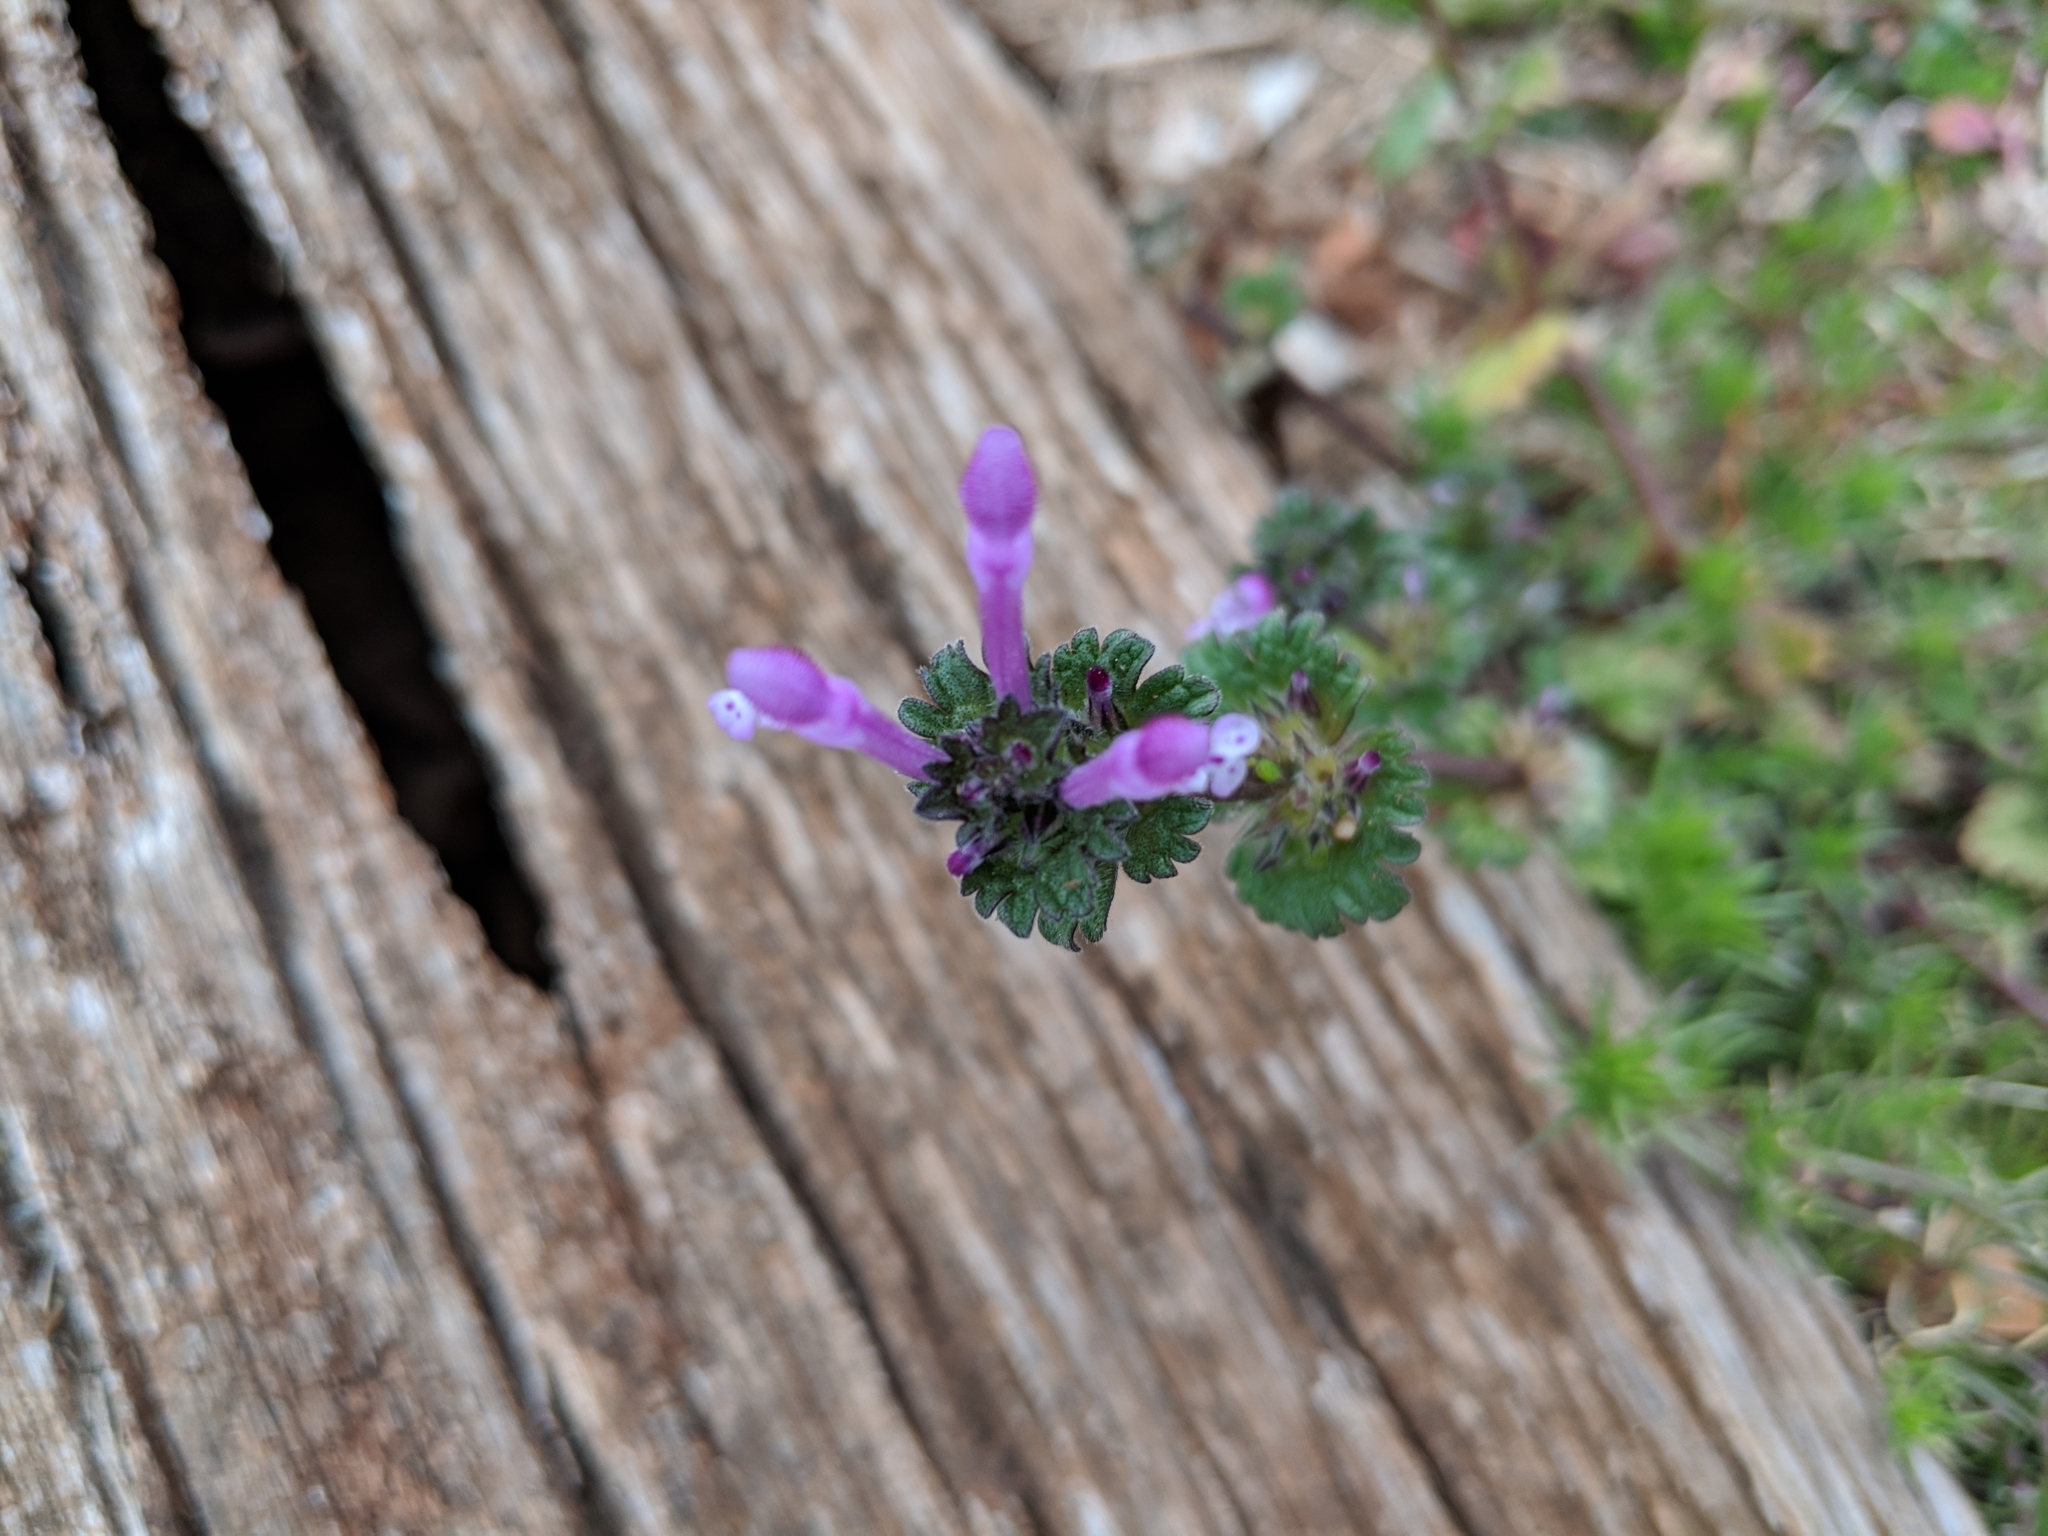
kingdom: Plantae
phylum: Tracheophyta
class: Magnoliopsida
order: Lamiales
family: Lamiaceae
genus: Lamium
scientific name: Lamium amplexicaule
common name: Henbit dead-nettle
